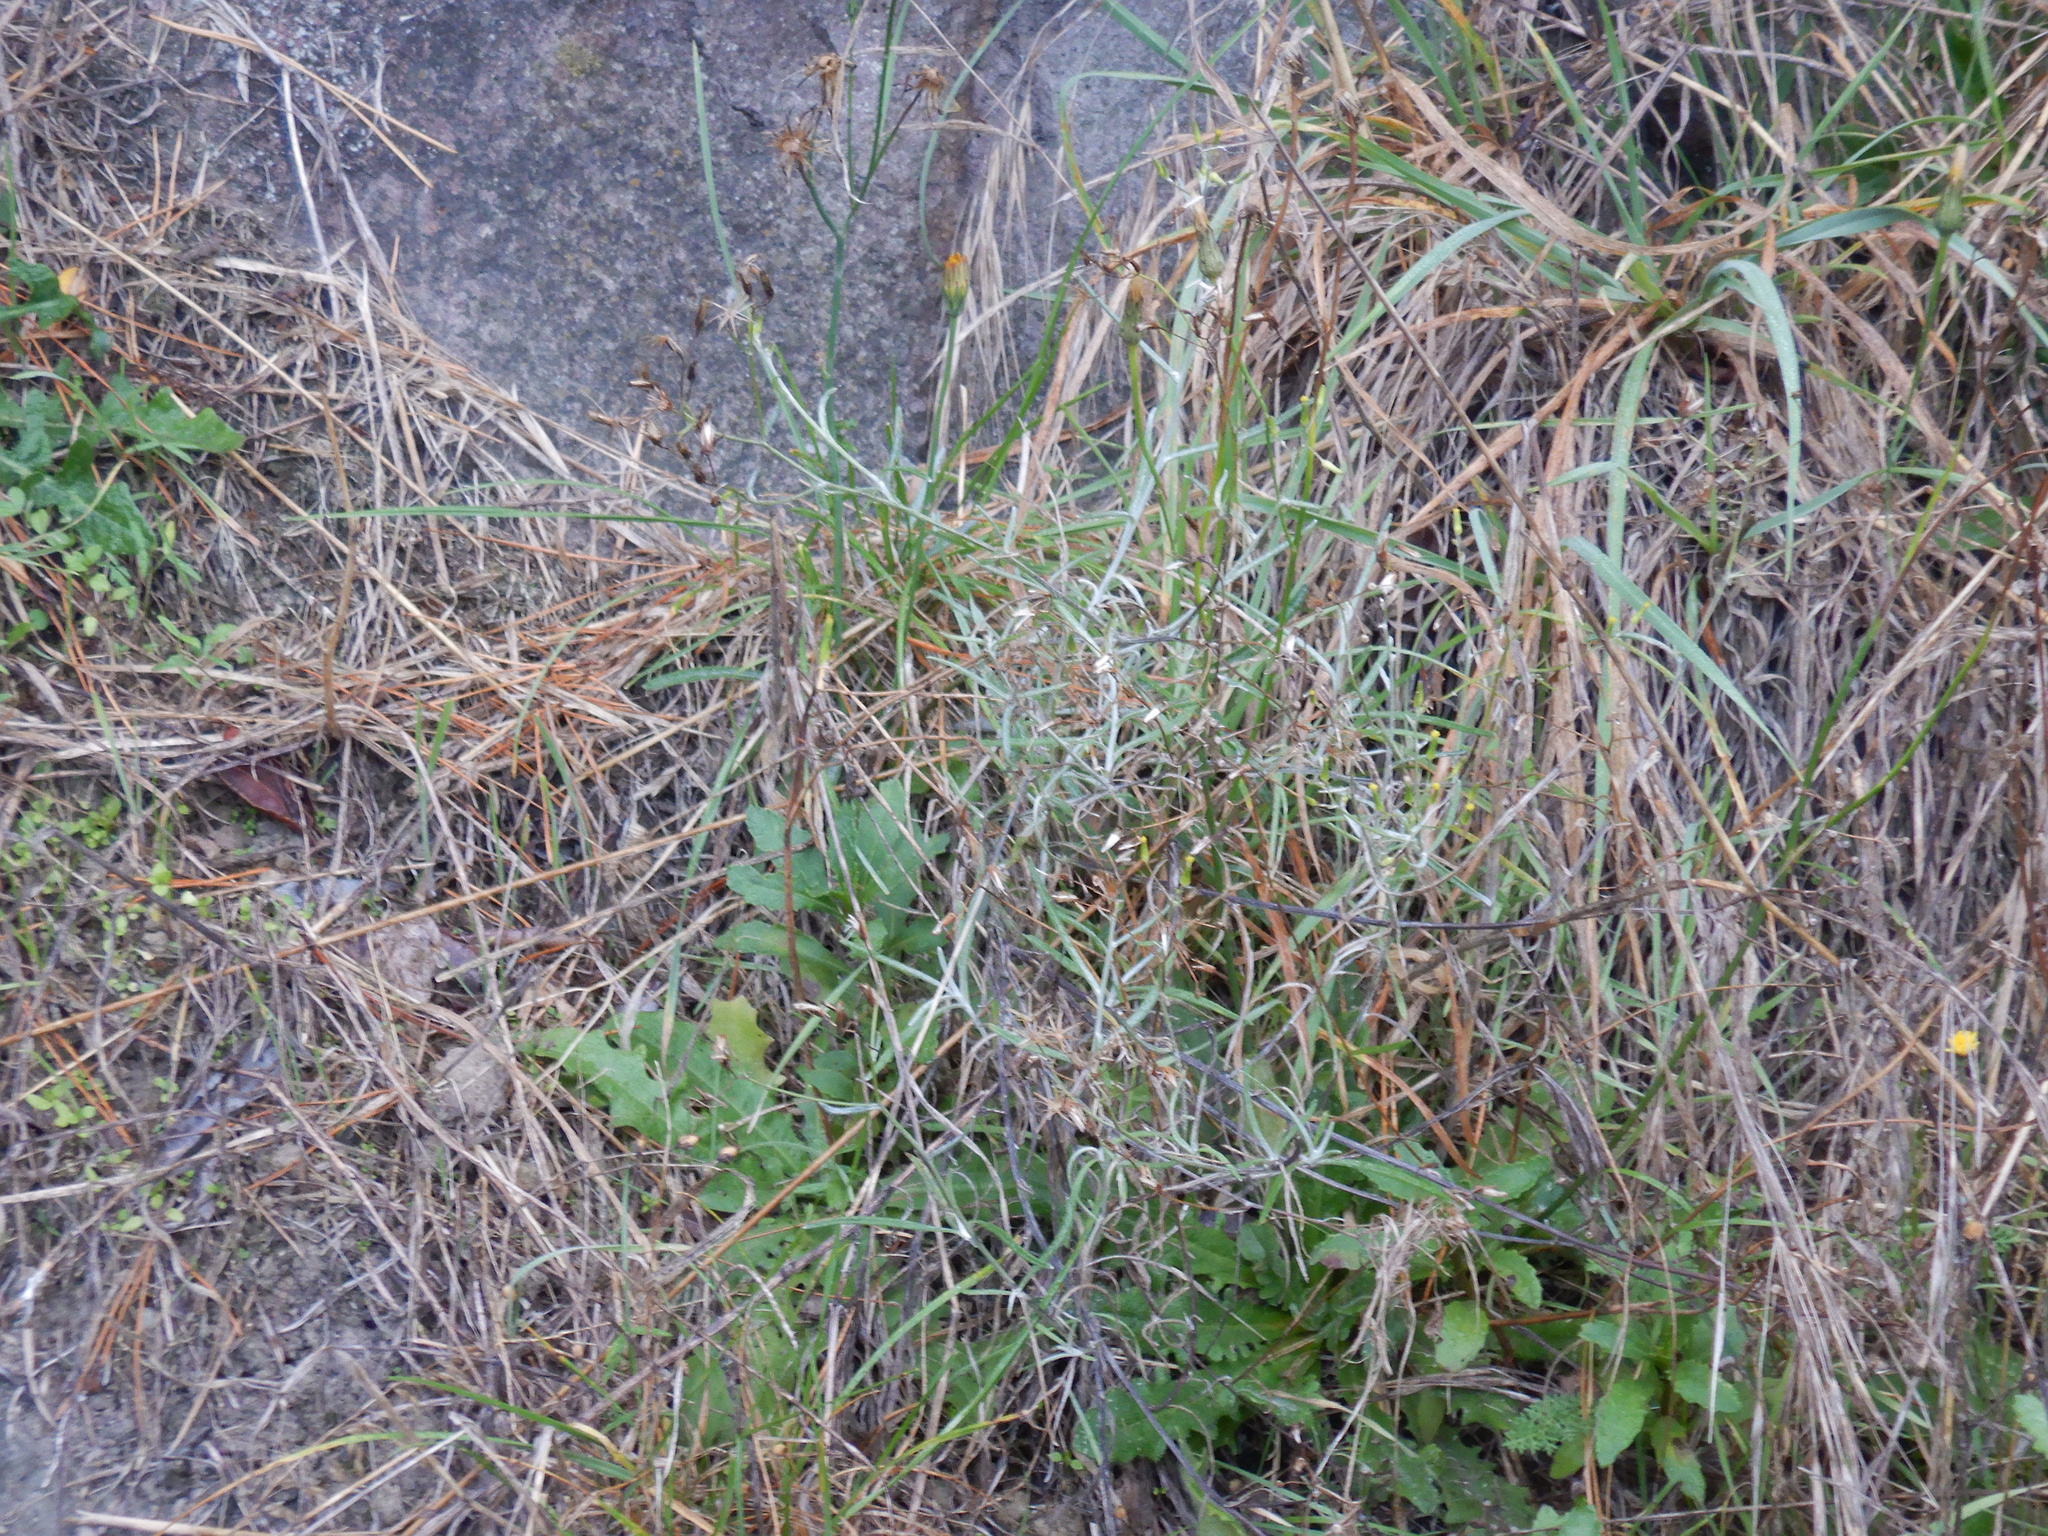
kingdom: Plantae
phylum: Tracheophyta
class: Magnoliopsida
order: Asterales
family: Asteraceae
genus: Senecio
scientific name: Senecio quadridentatus
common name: Cotton fireweed
